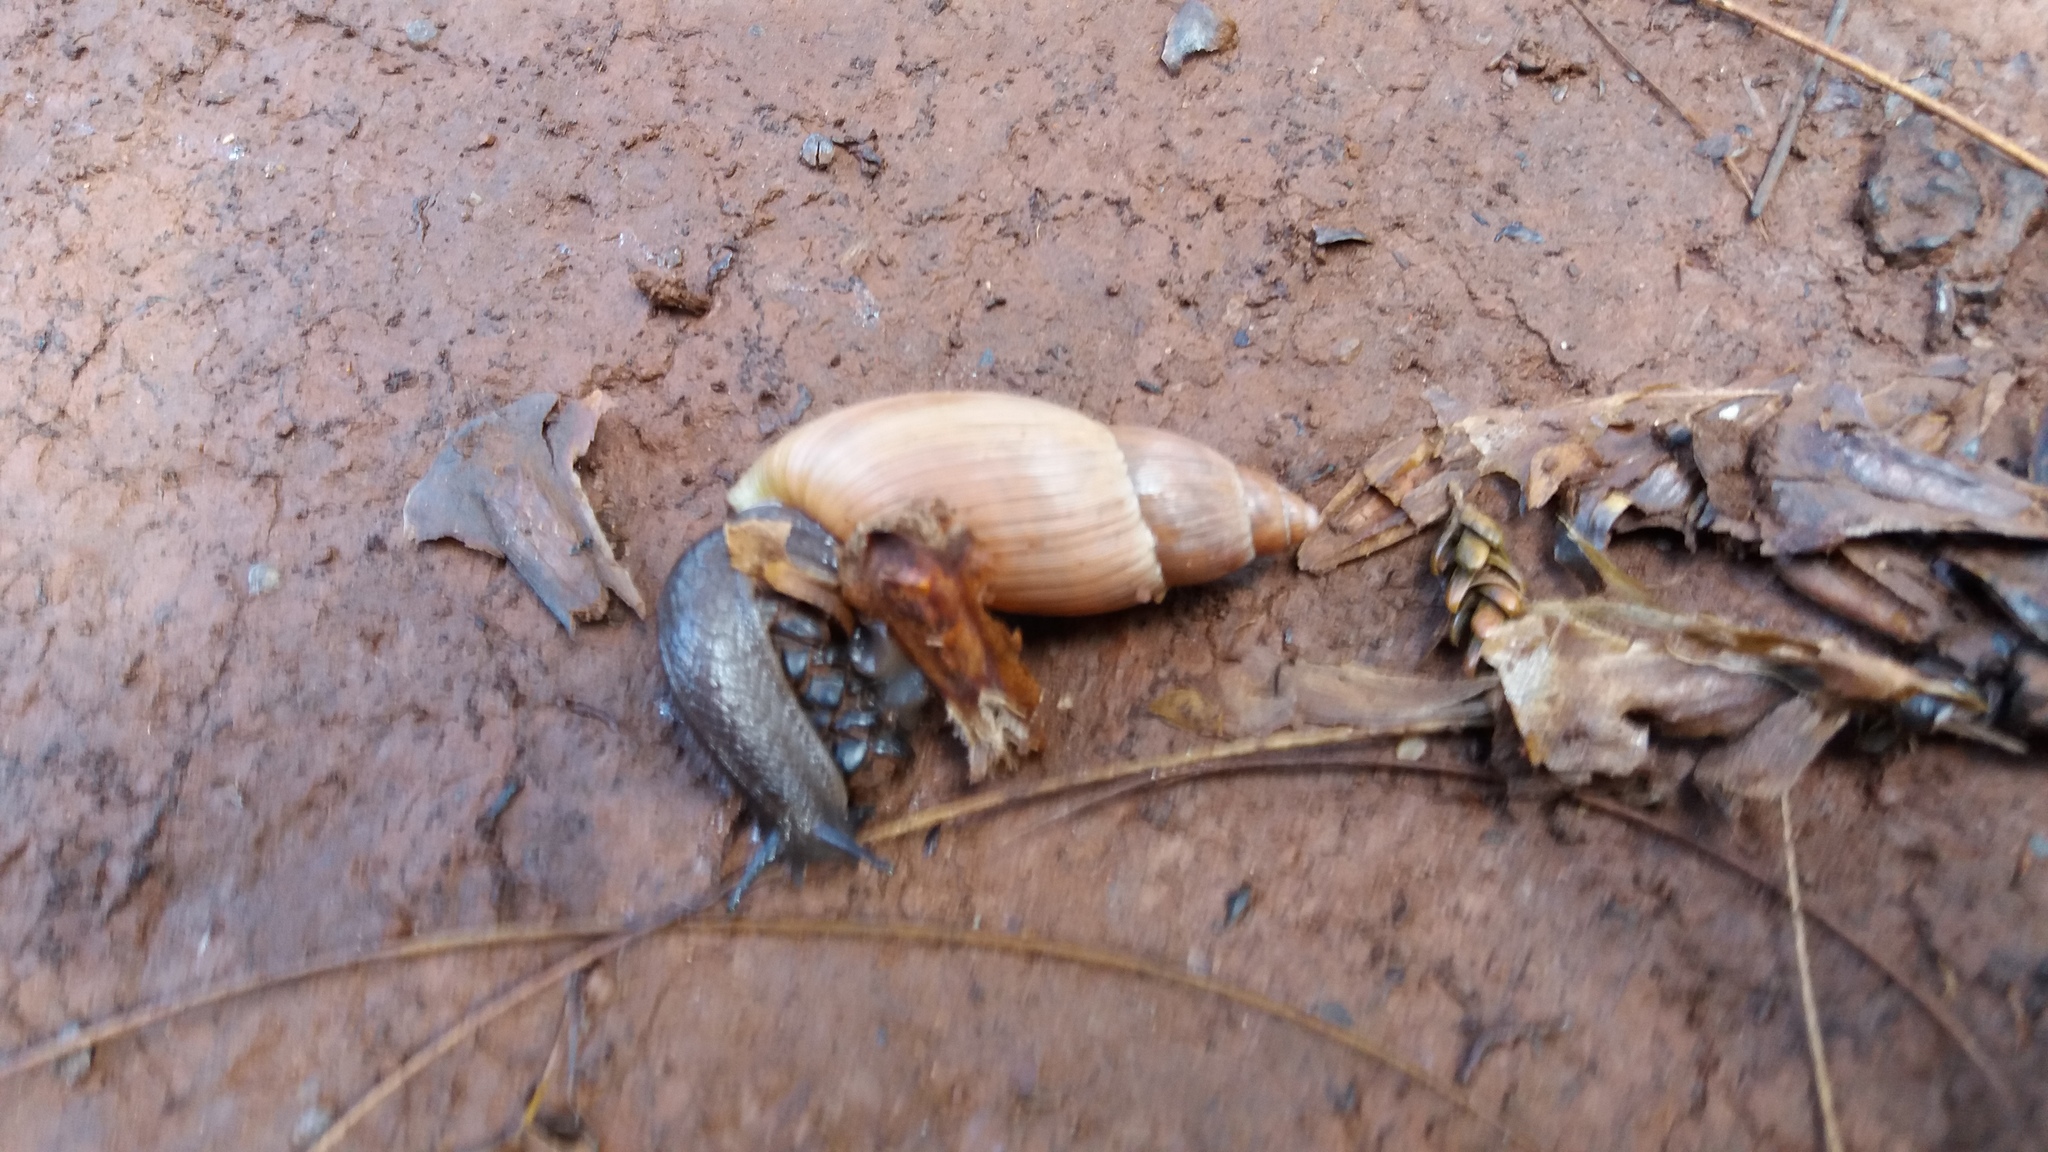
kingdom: Animalia
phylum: Mollusca
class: Gastropoda
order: Stylommatophora
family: Spiraxidae
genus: Euglandina
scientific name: Euglandina rosea
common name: Rosy wolfsnail
